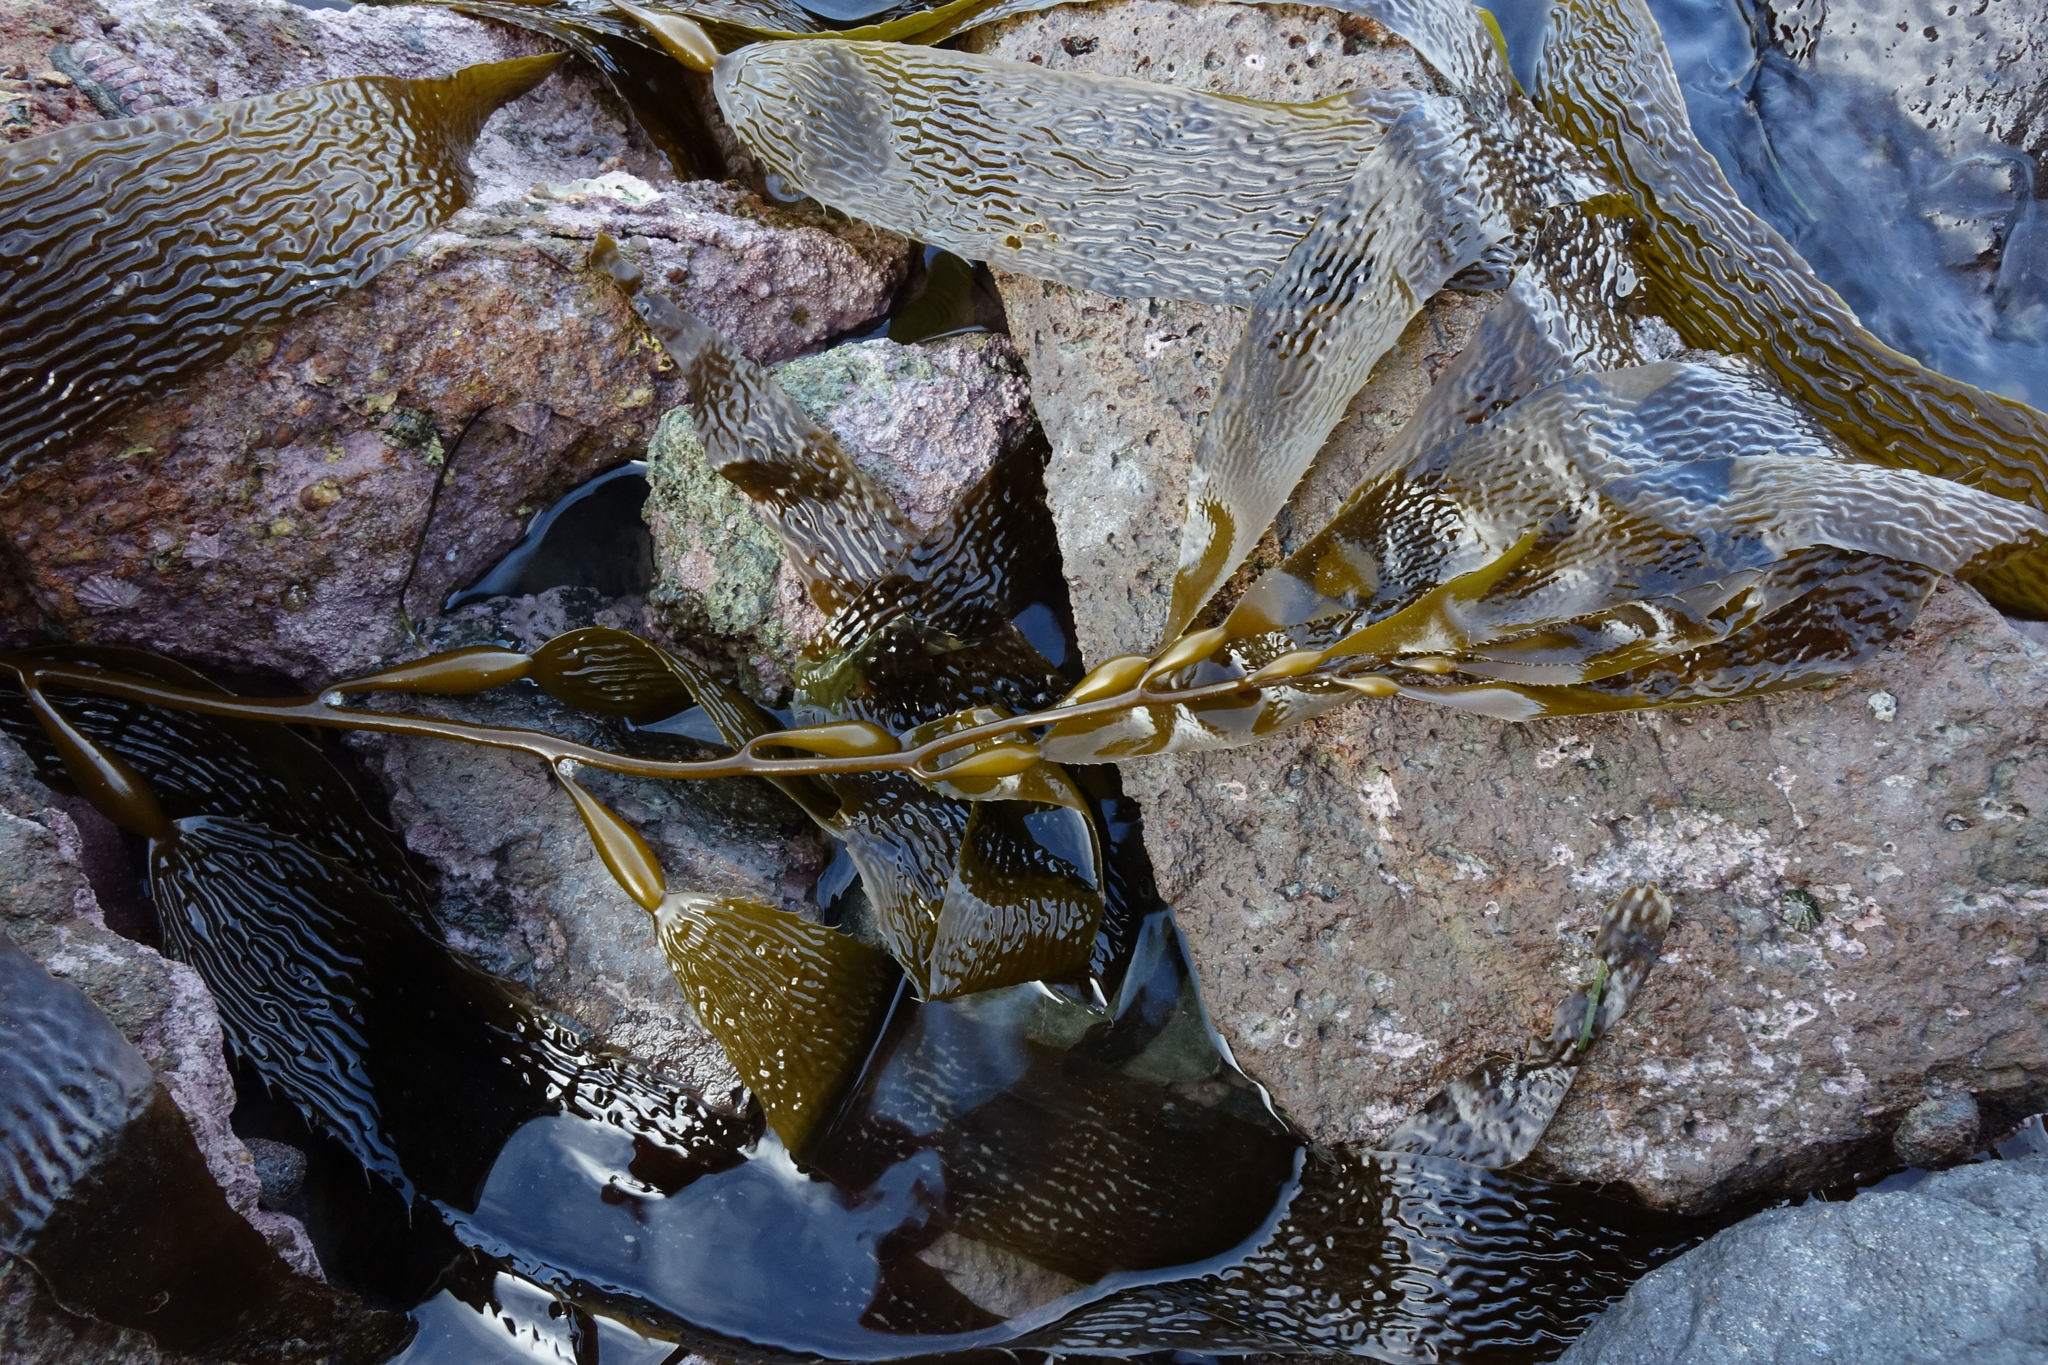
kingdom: Chromista
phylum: Ochrophyta
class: Phaeophyceae
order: Laminariales
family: Laminariaceae
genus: Macrocystis
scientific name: Macrocystis pyrifera
